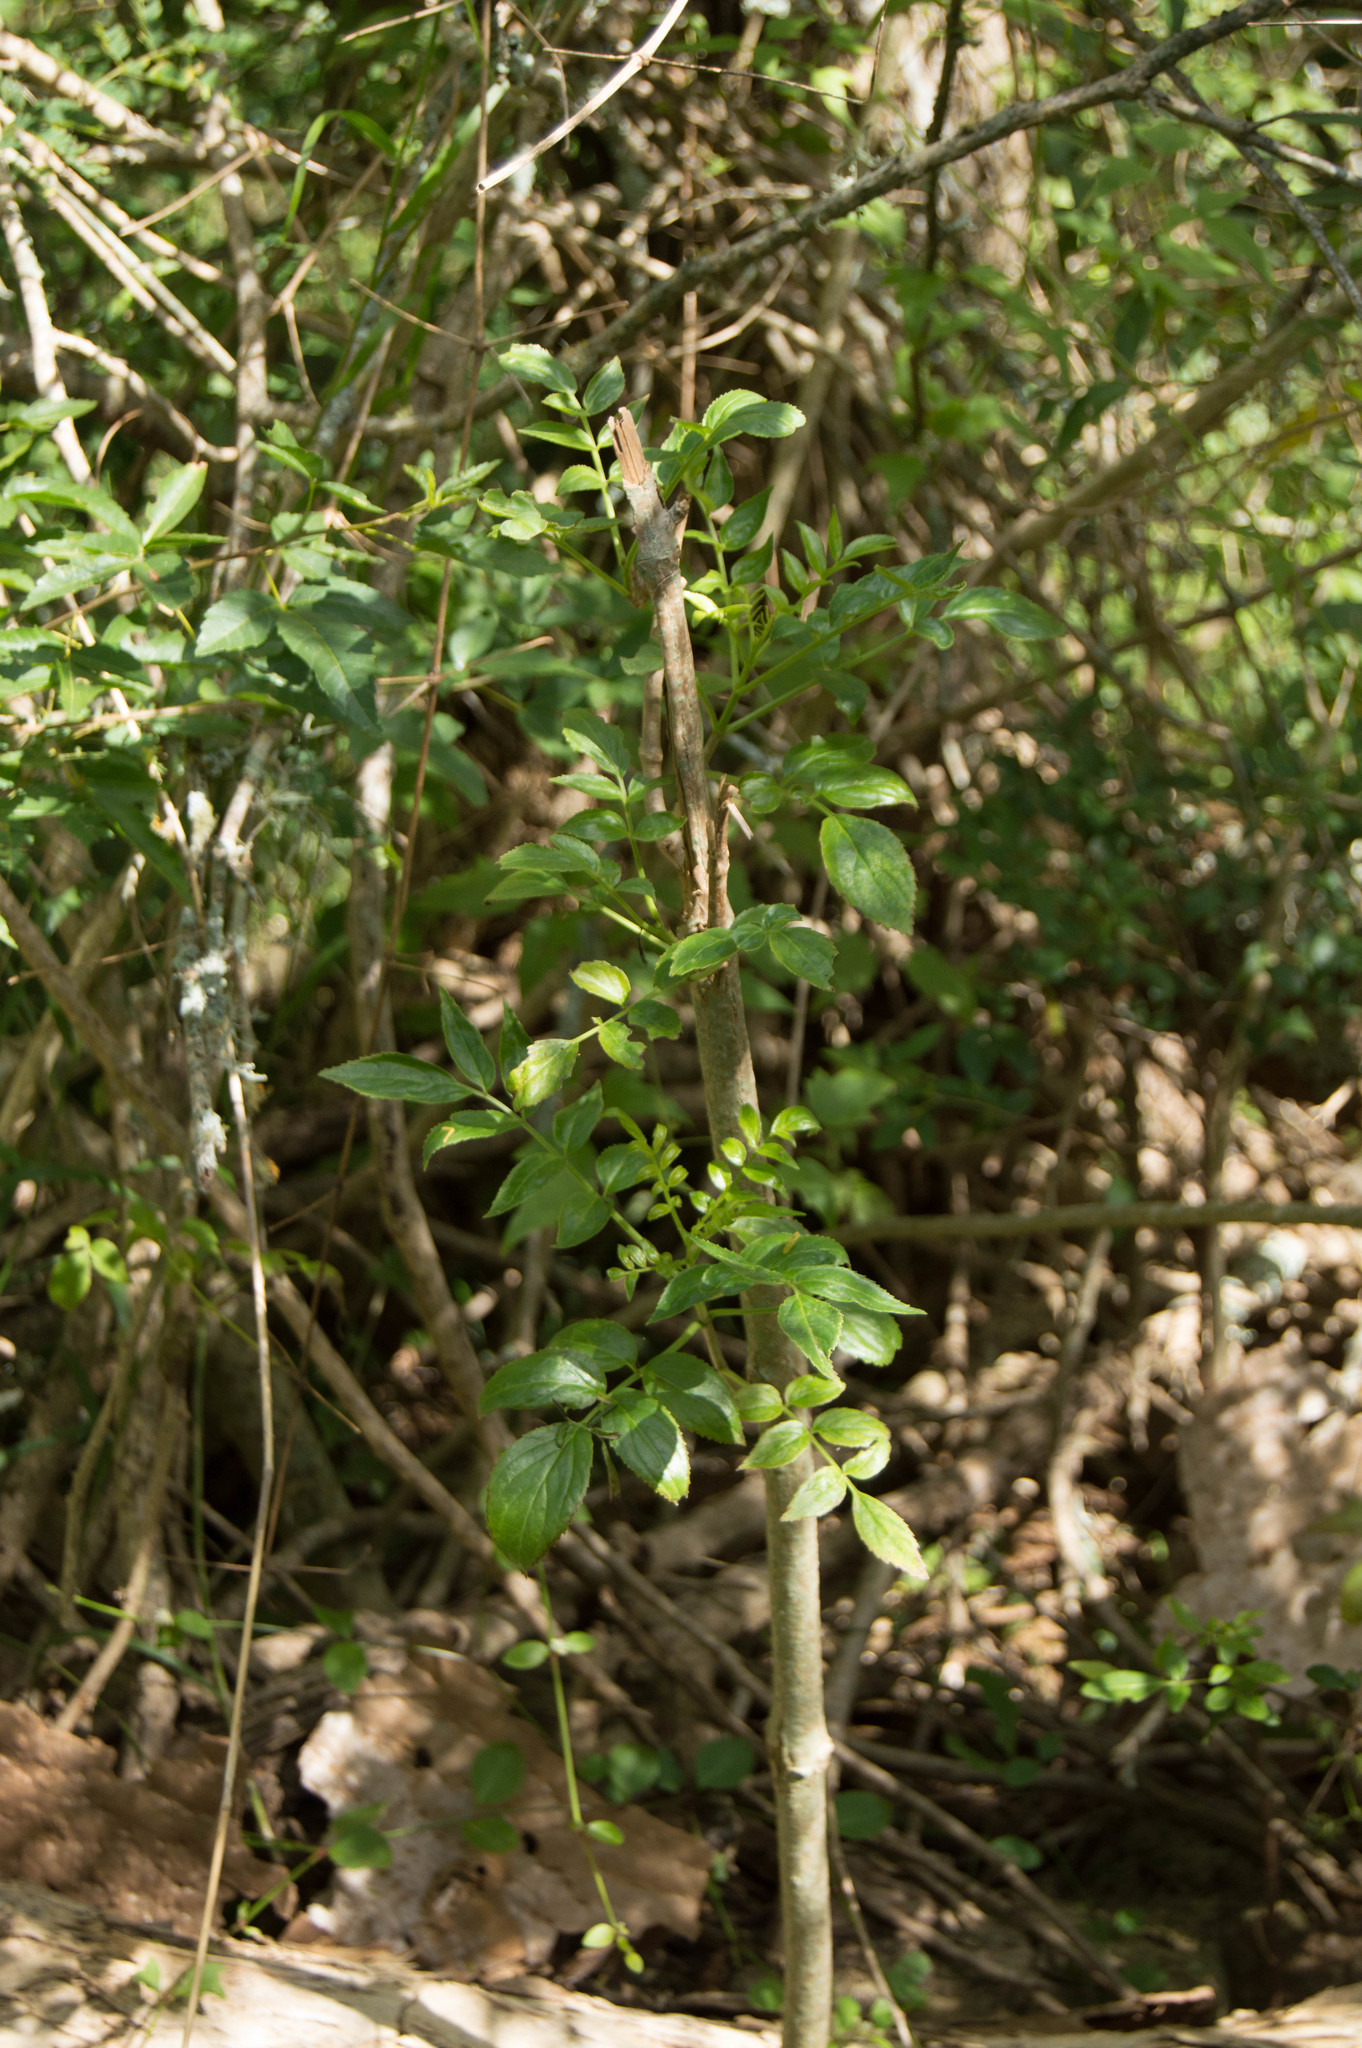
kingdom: Plantae
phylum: Tracheophyta
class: Magnoliopsida
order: Dipsacales
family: Viburnaceae
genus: Sambucus
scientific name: Sambucus australis
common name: Southern elder
